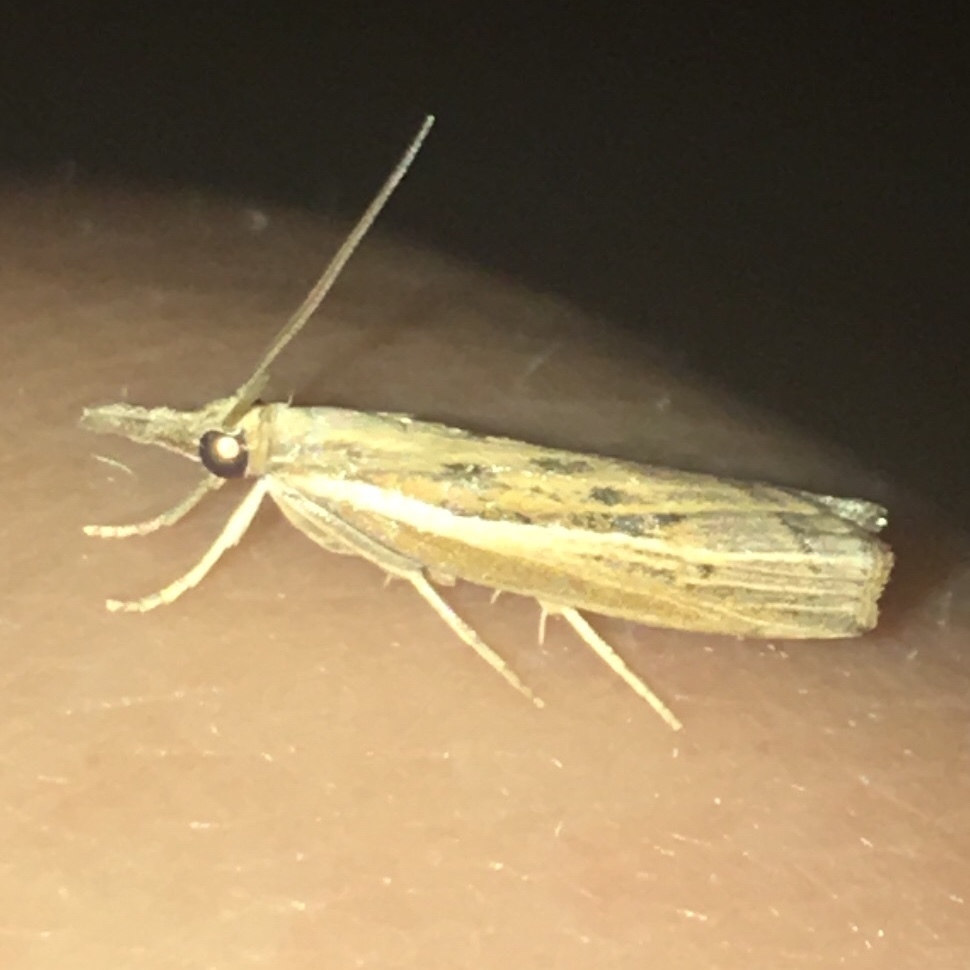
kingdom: Animalia
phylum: Arthropoda
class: Insecta
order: Lepidoptera
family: Crambidae
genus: Fissicrambus
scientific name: Fissicrambus fissiradiellus
